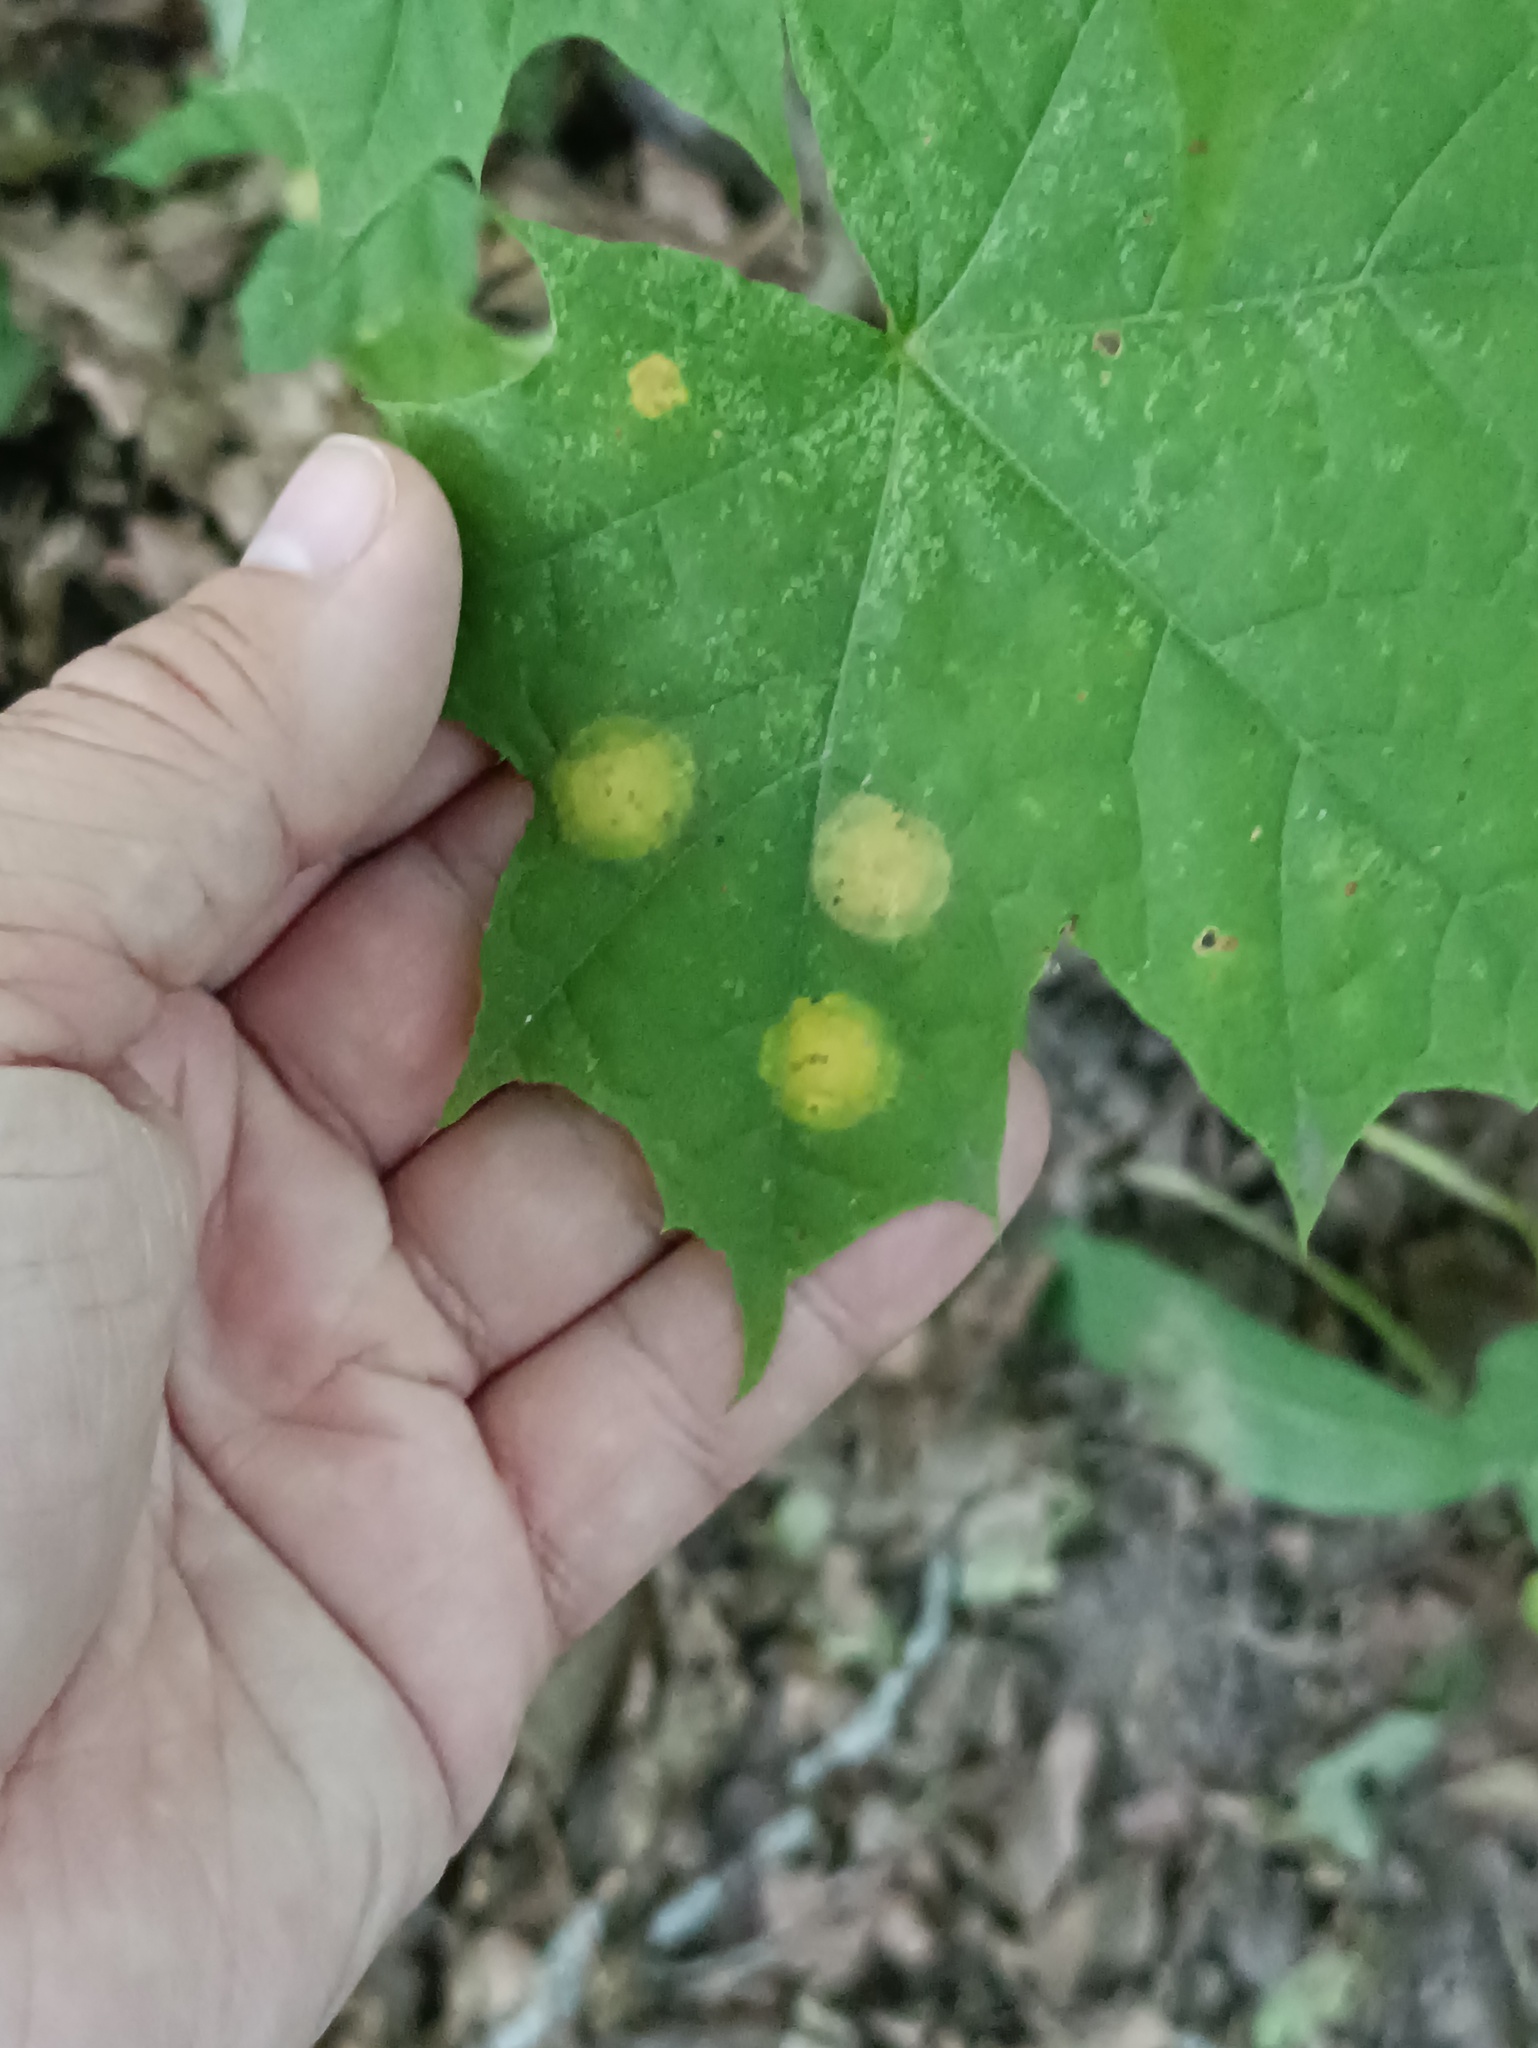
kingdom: Fungi
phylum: Ascomycota
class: Leotiomycetes
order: Rhytismatales
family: Rhytismataceae
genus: Rhytisma
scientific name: Rhytisma acerinum
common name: European tar spot
